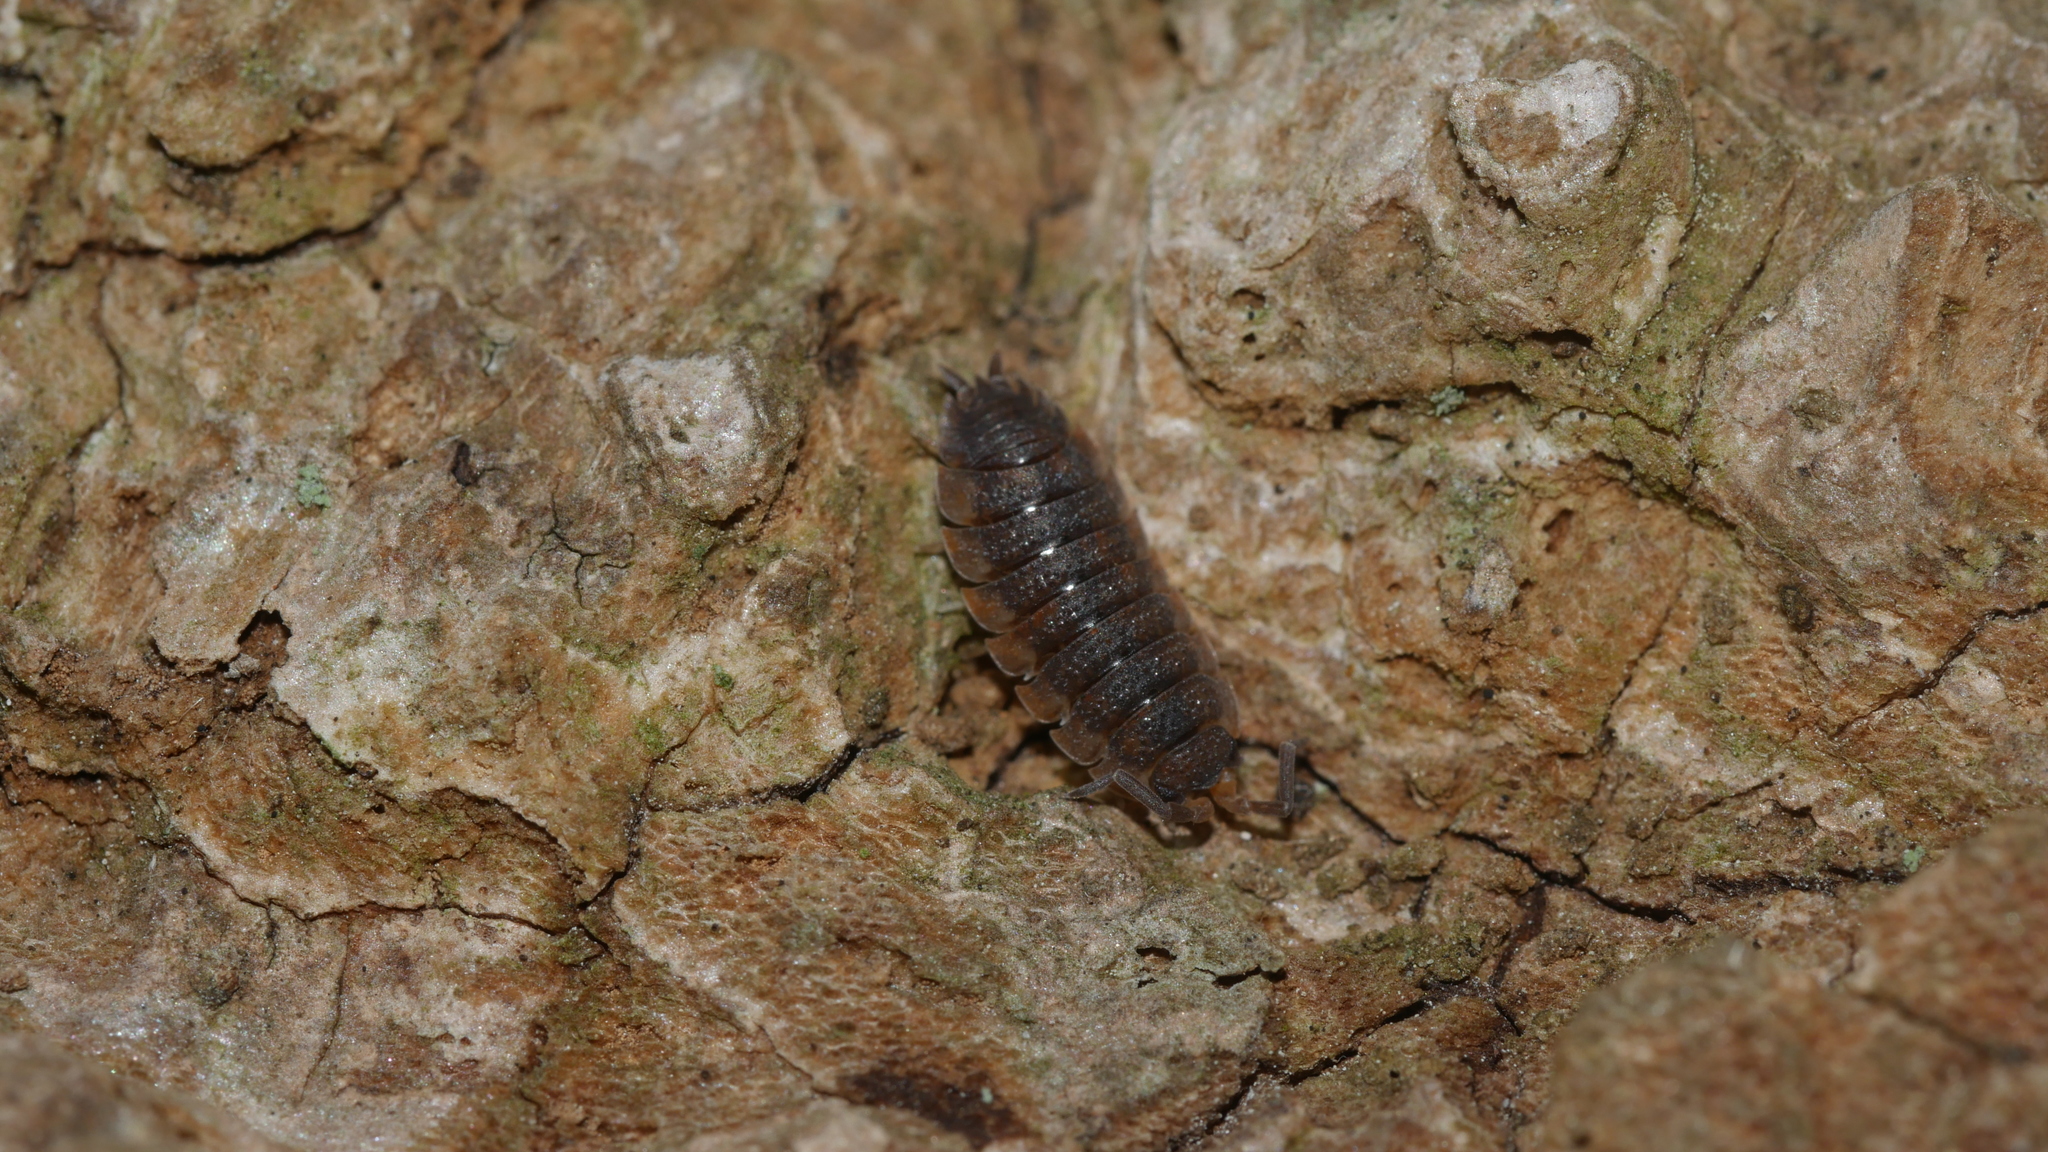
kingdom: Animalia
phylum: Arthropoda
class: Malacostraca
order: Isopoda
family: Porcellionidae
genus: Porcellio
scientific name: Porcellio scaber
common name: Common rough woodlouse
